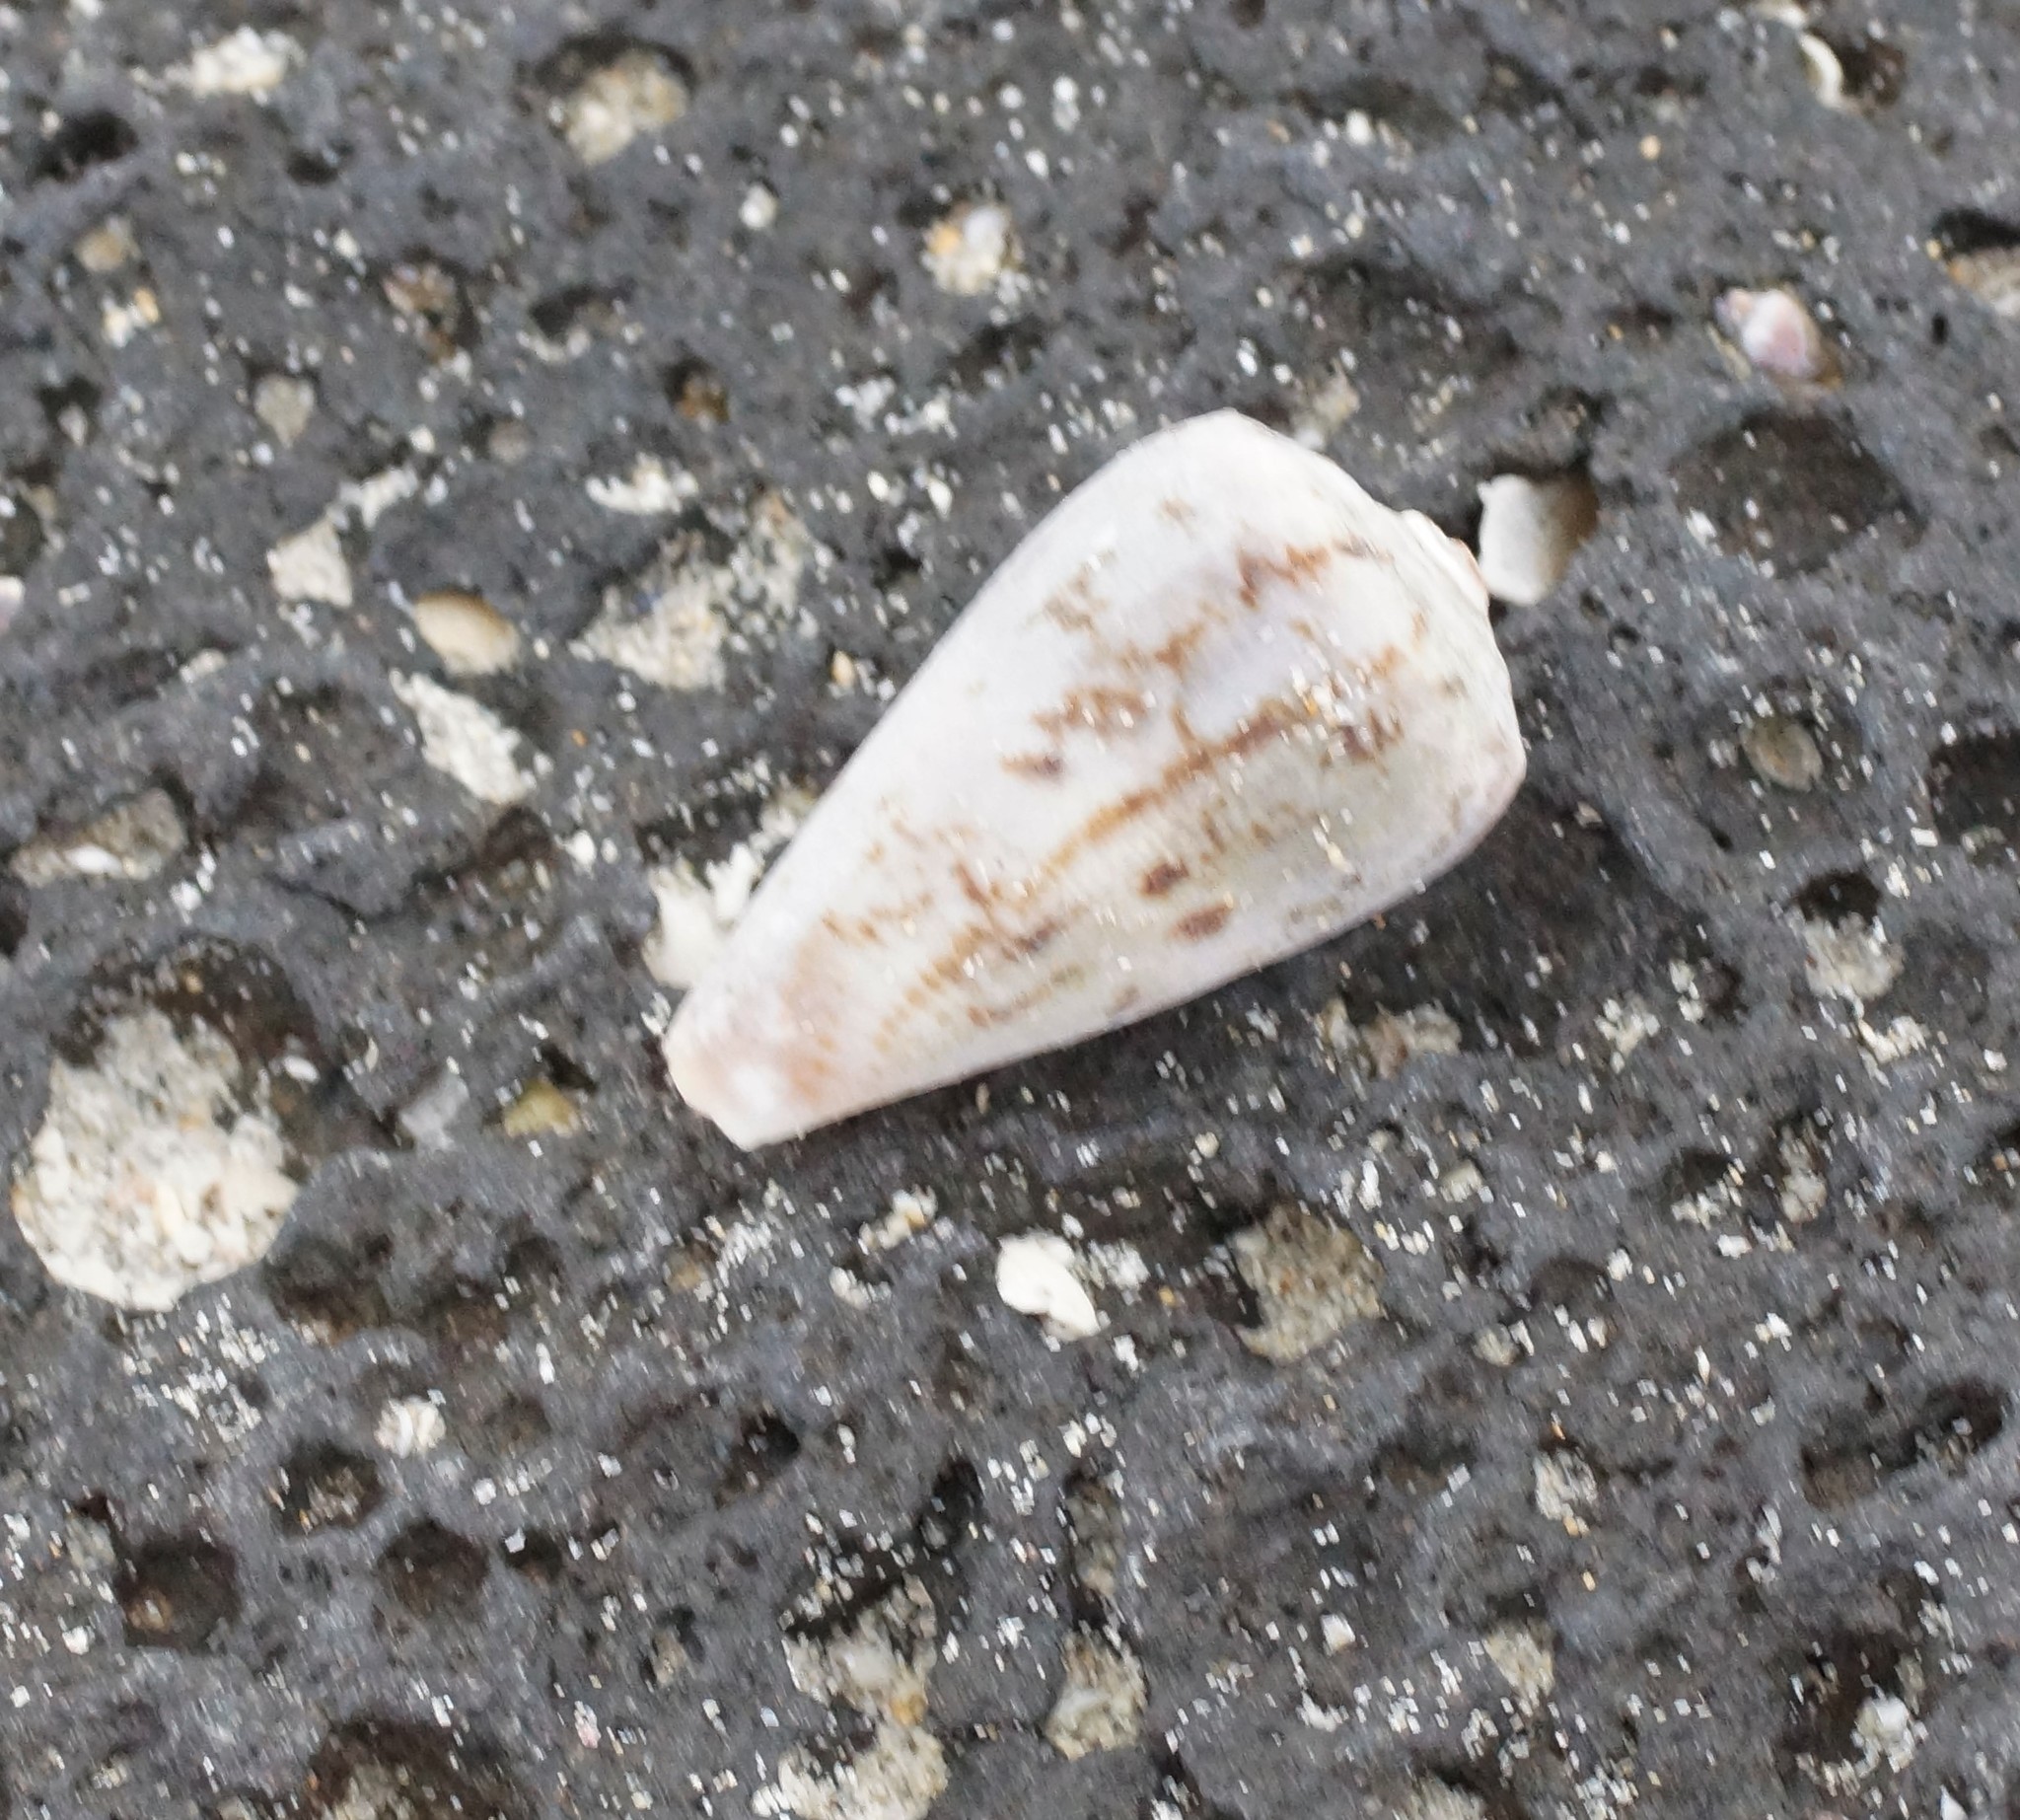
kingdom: Animalia
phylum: Mollusca
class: Gastropoda
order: Neogastropoda
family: Conidae
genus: Conus
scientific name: Conus anemone
